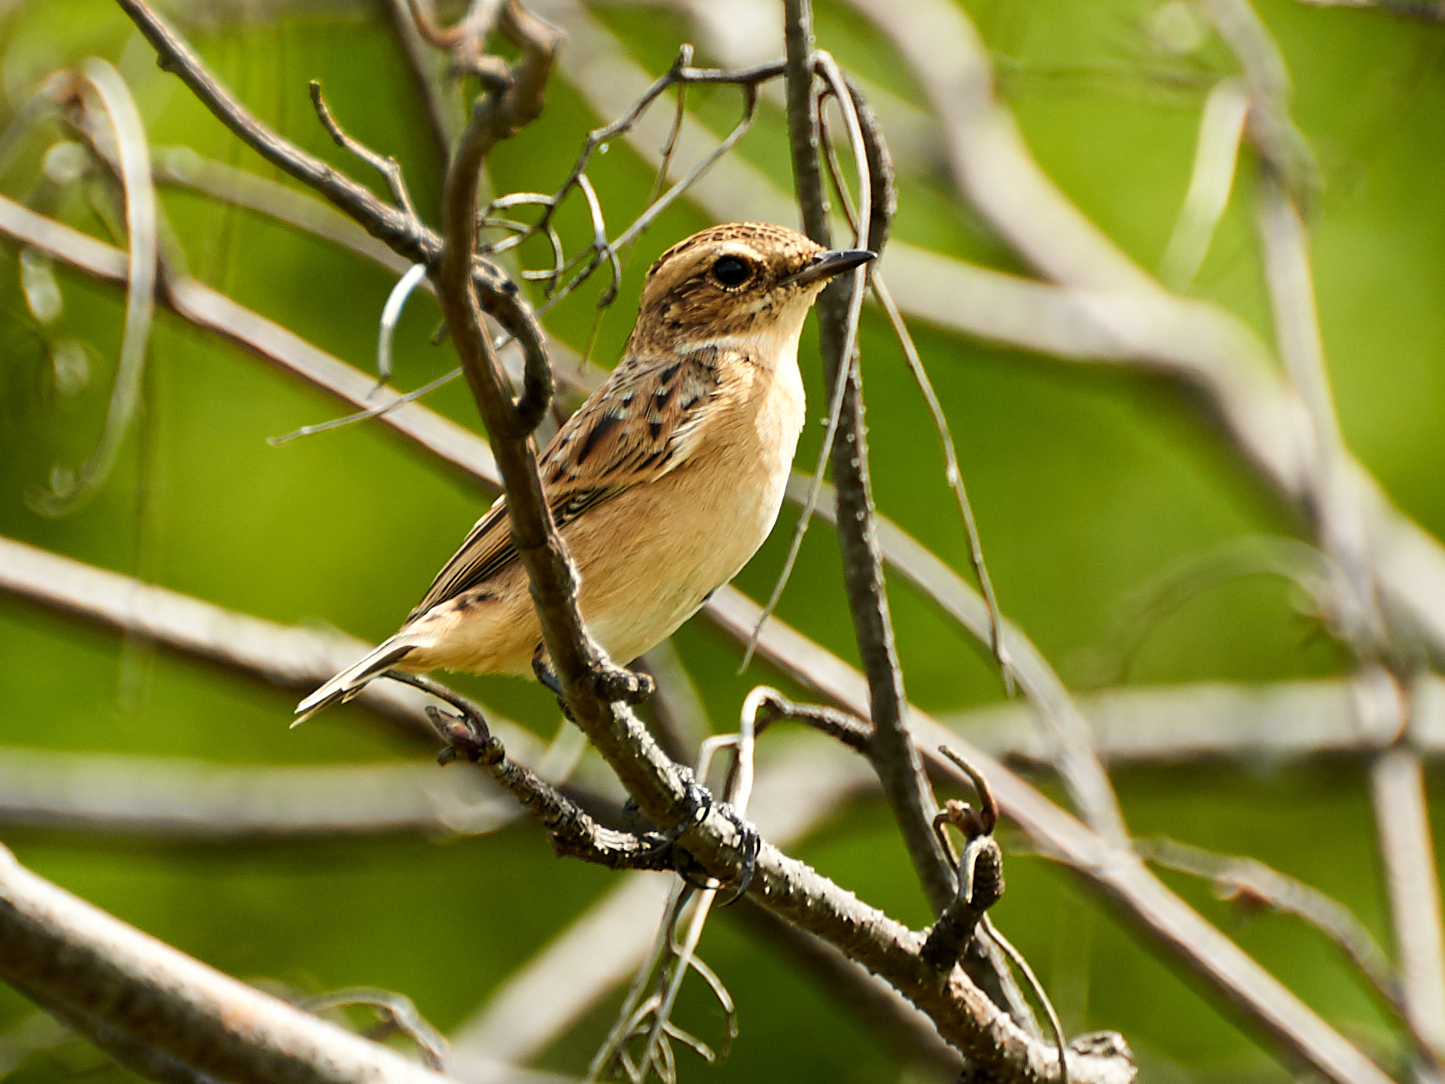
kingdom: Animalia
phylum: Chordata
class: Aves
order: Passeriformes
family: Muscicapidae
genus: Saxicola
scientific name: Saxicola rubetra
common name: Whinchat
